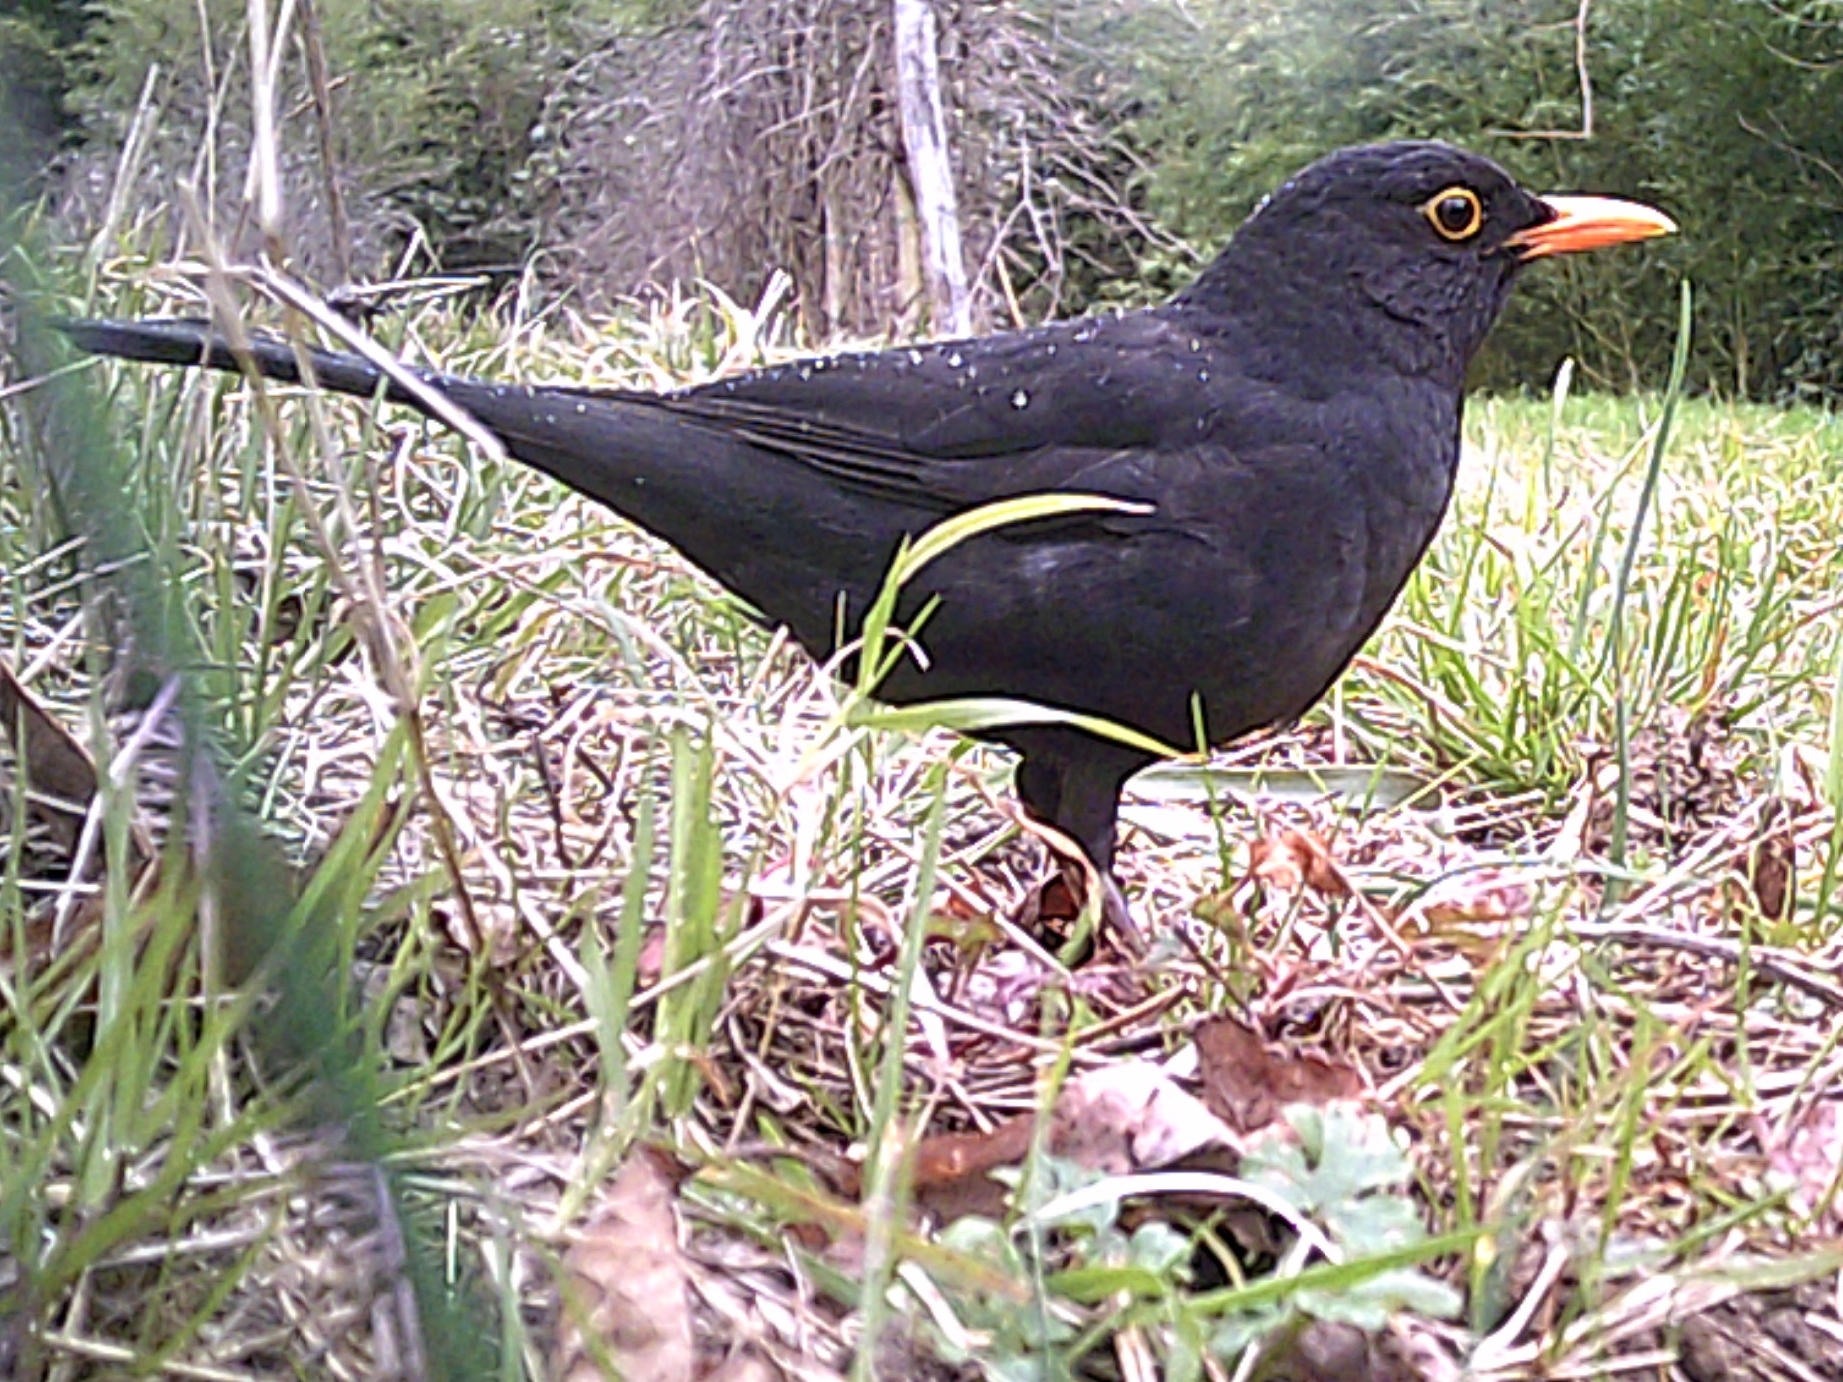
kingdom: Animalia
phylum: Chordata
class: Aves
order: Passeriformes
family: Turdidae
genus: Turdus
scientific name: Turdus merula
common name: Common blackbird
